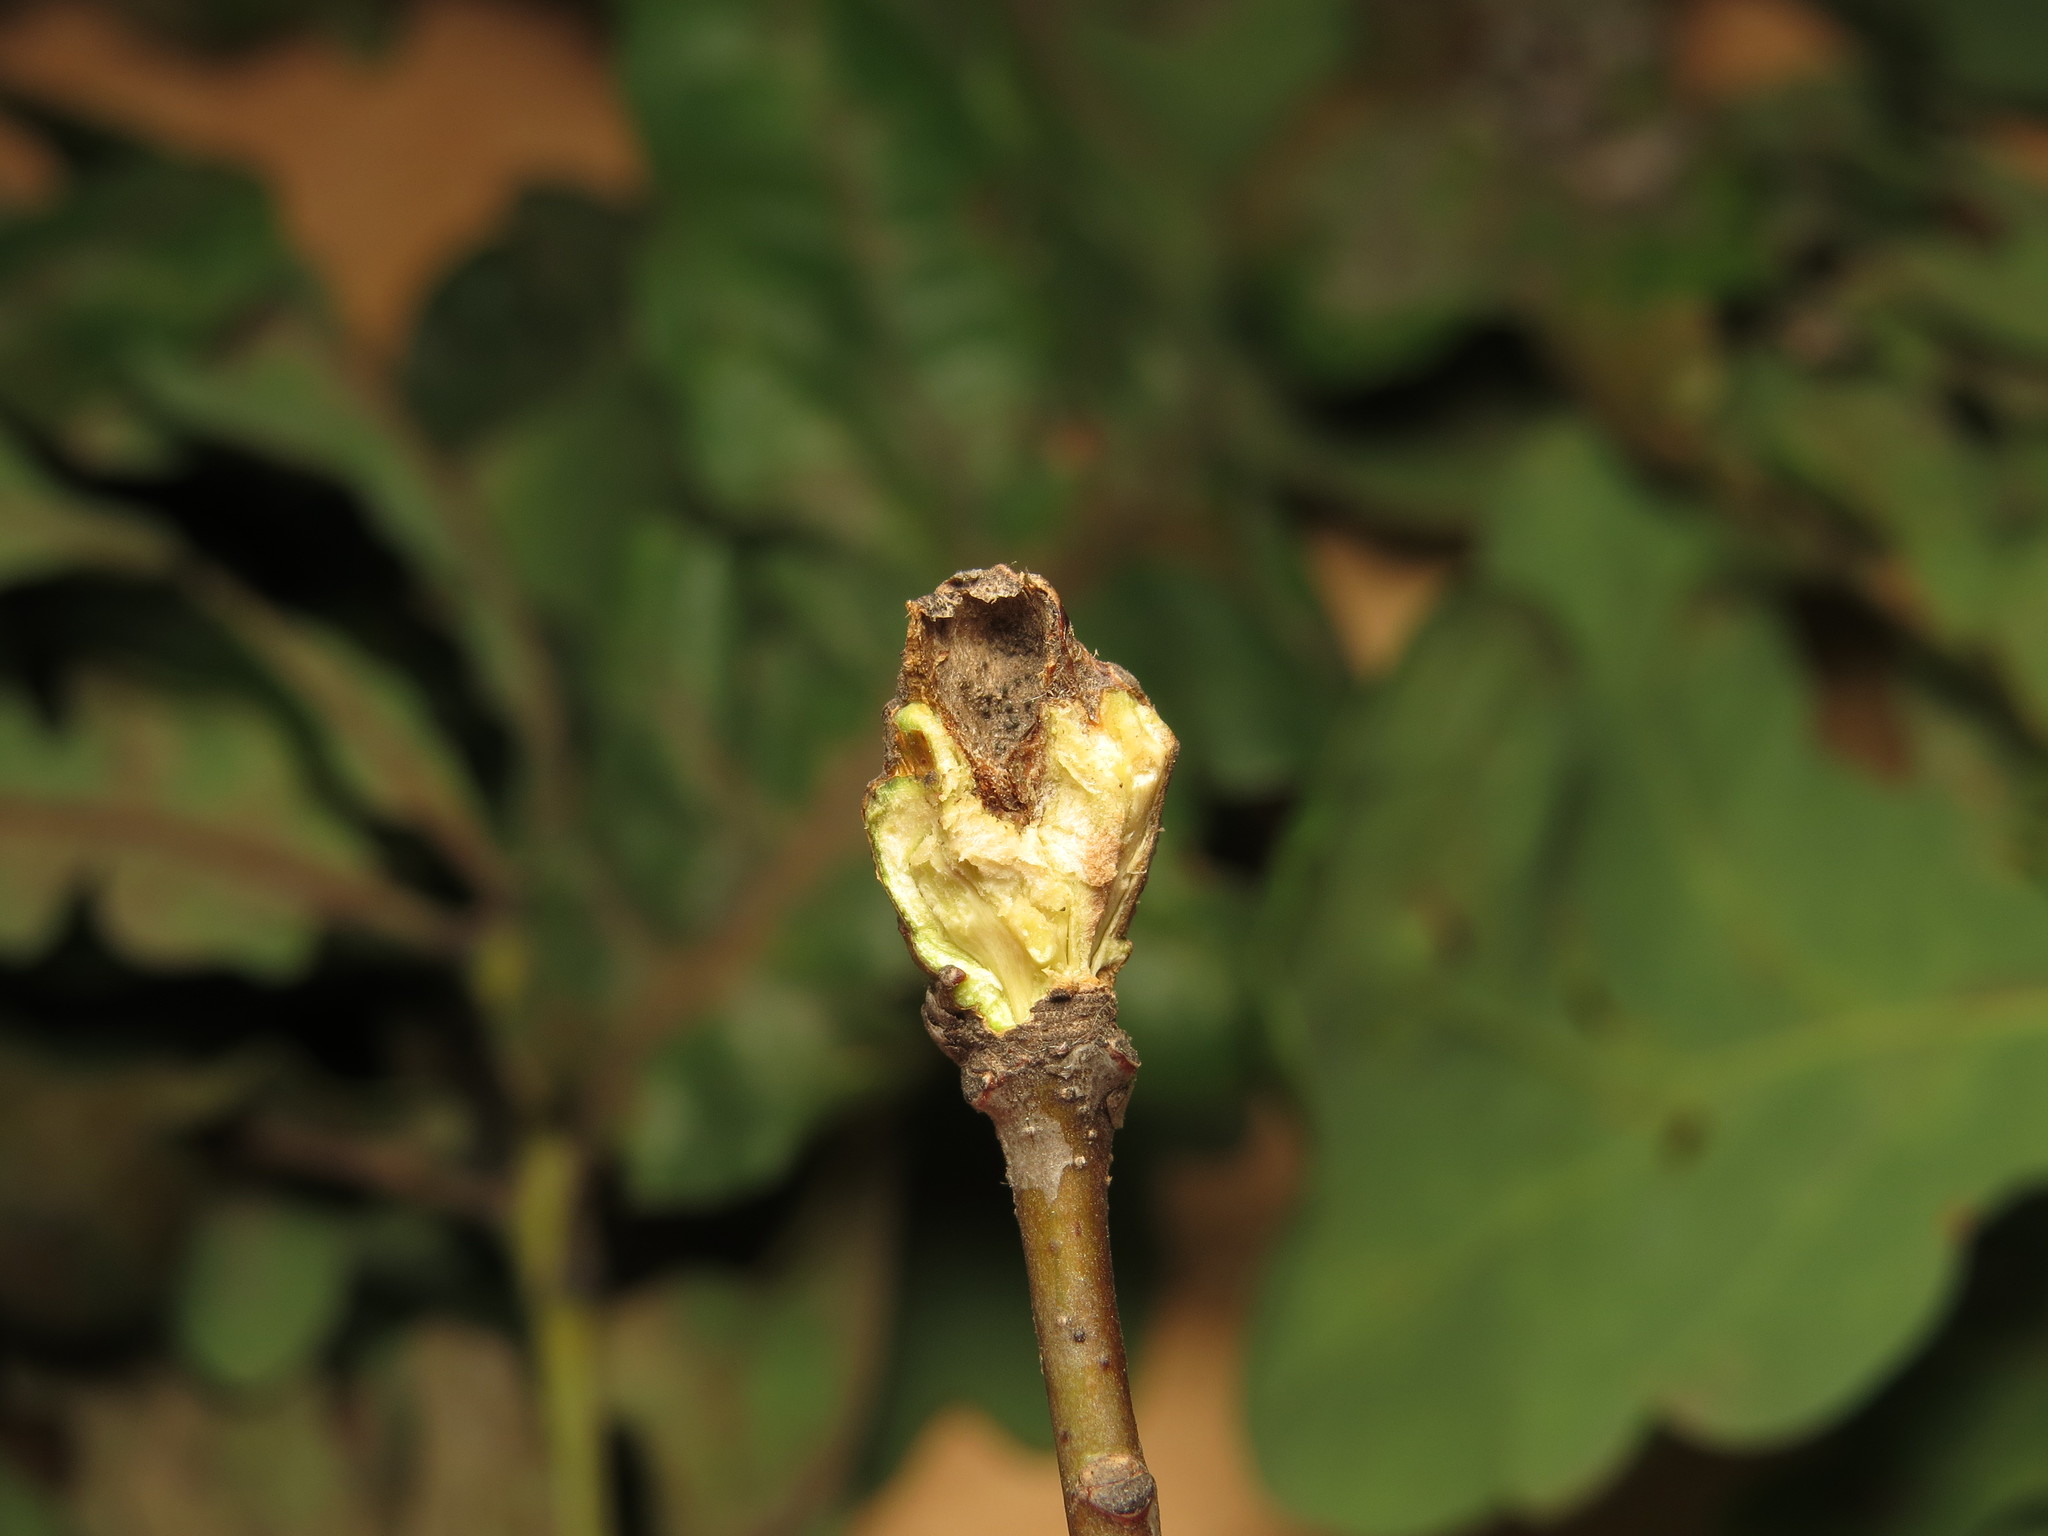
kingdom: Animalia
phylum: Arthropoda
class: Insecta
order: Hymenoptera
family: Cynipidae
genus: Andricus
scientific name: Andricus inflator
